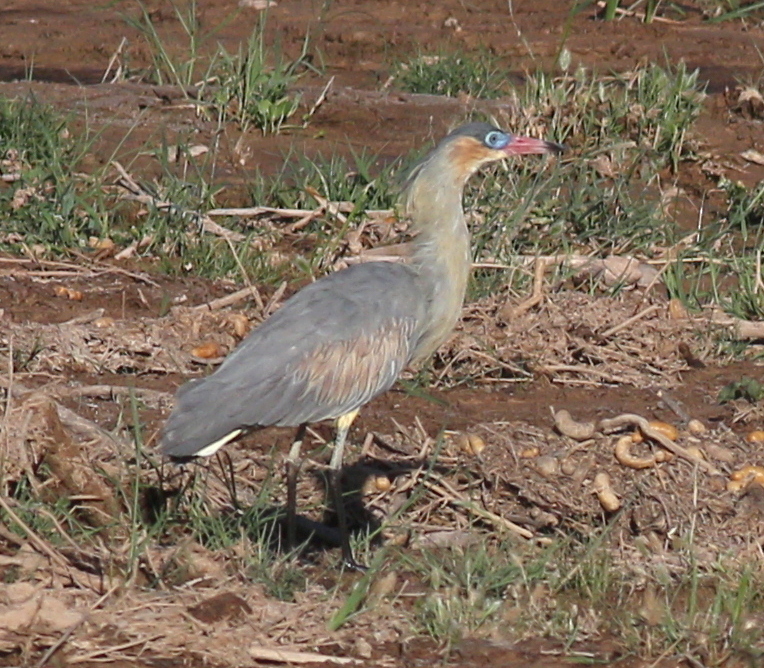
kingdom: Animalia
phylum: Chordata
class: Aves
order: Pelecaniformes
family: Ardeidae
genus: Syrigma
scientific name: Syrigma sibilatrix
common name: Whistling heron
